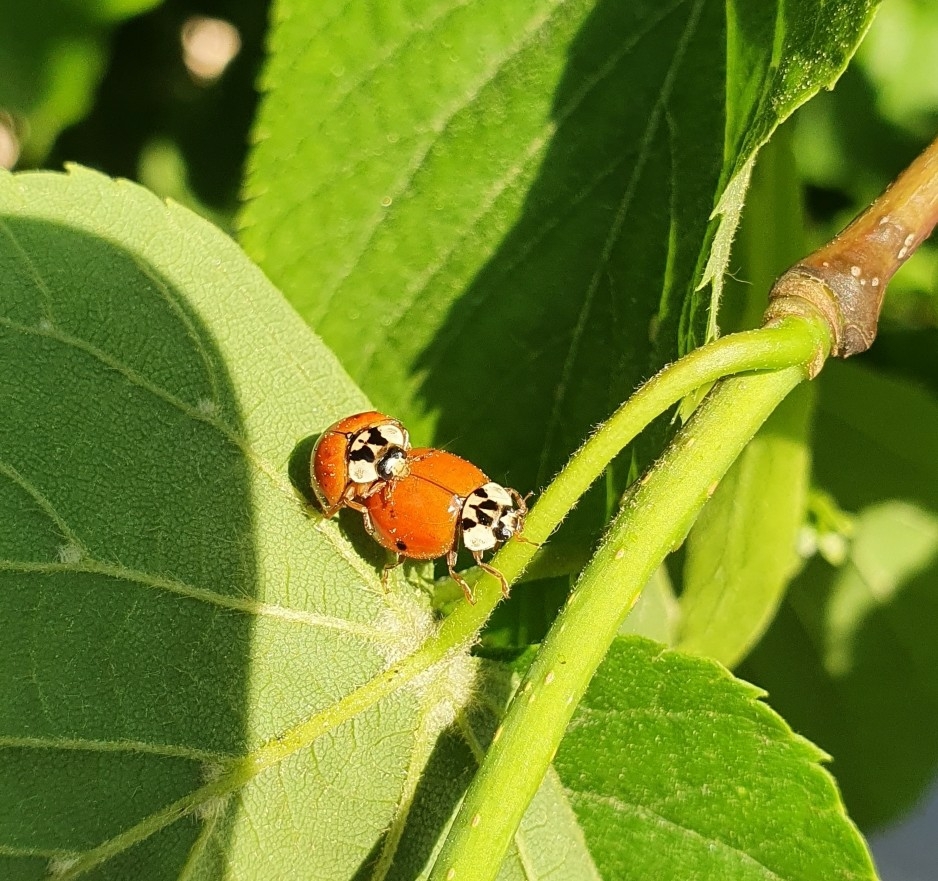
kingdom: Animalia
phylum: Arthropoda
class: Insecta
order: Coleoptera
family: Coccinellidae
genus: Harmonia
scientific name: Harmonia axyridis
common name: Harlequin ladybird
